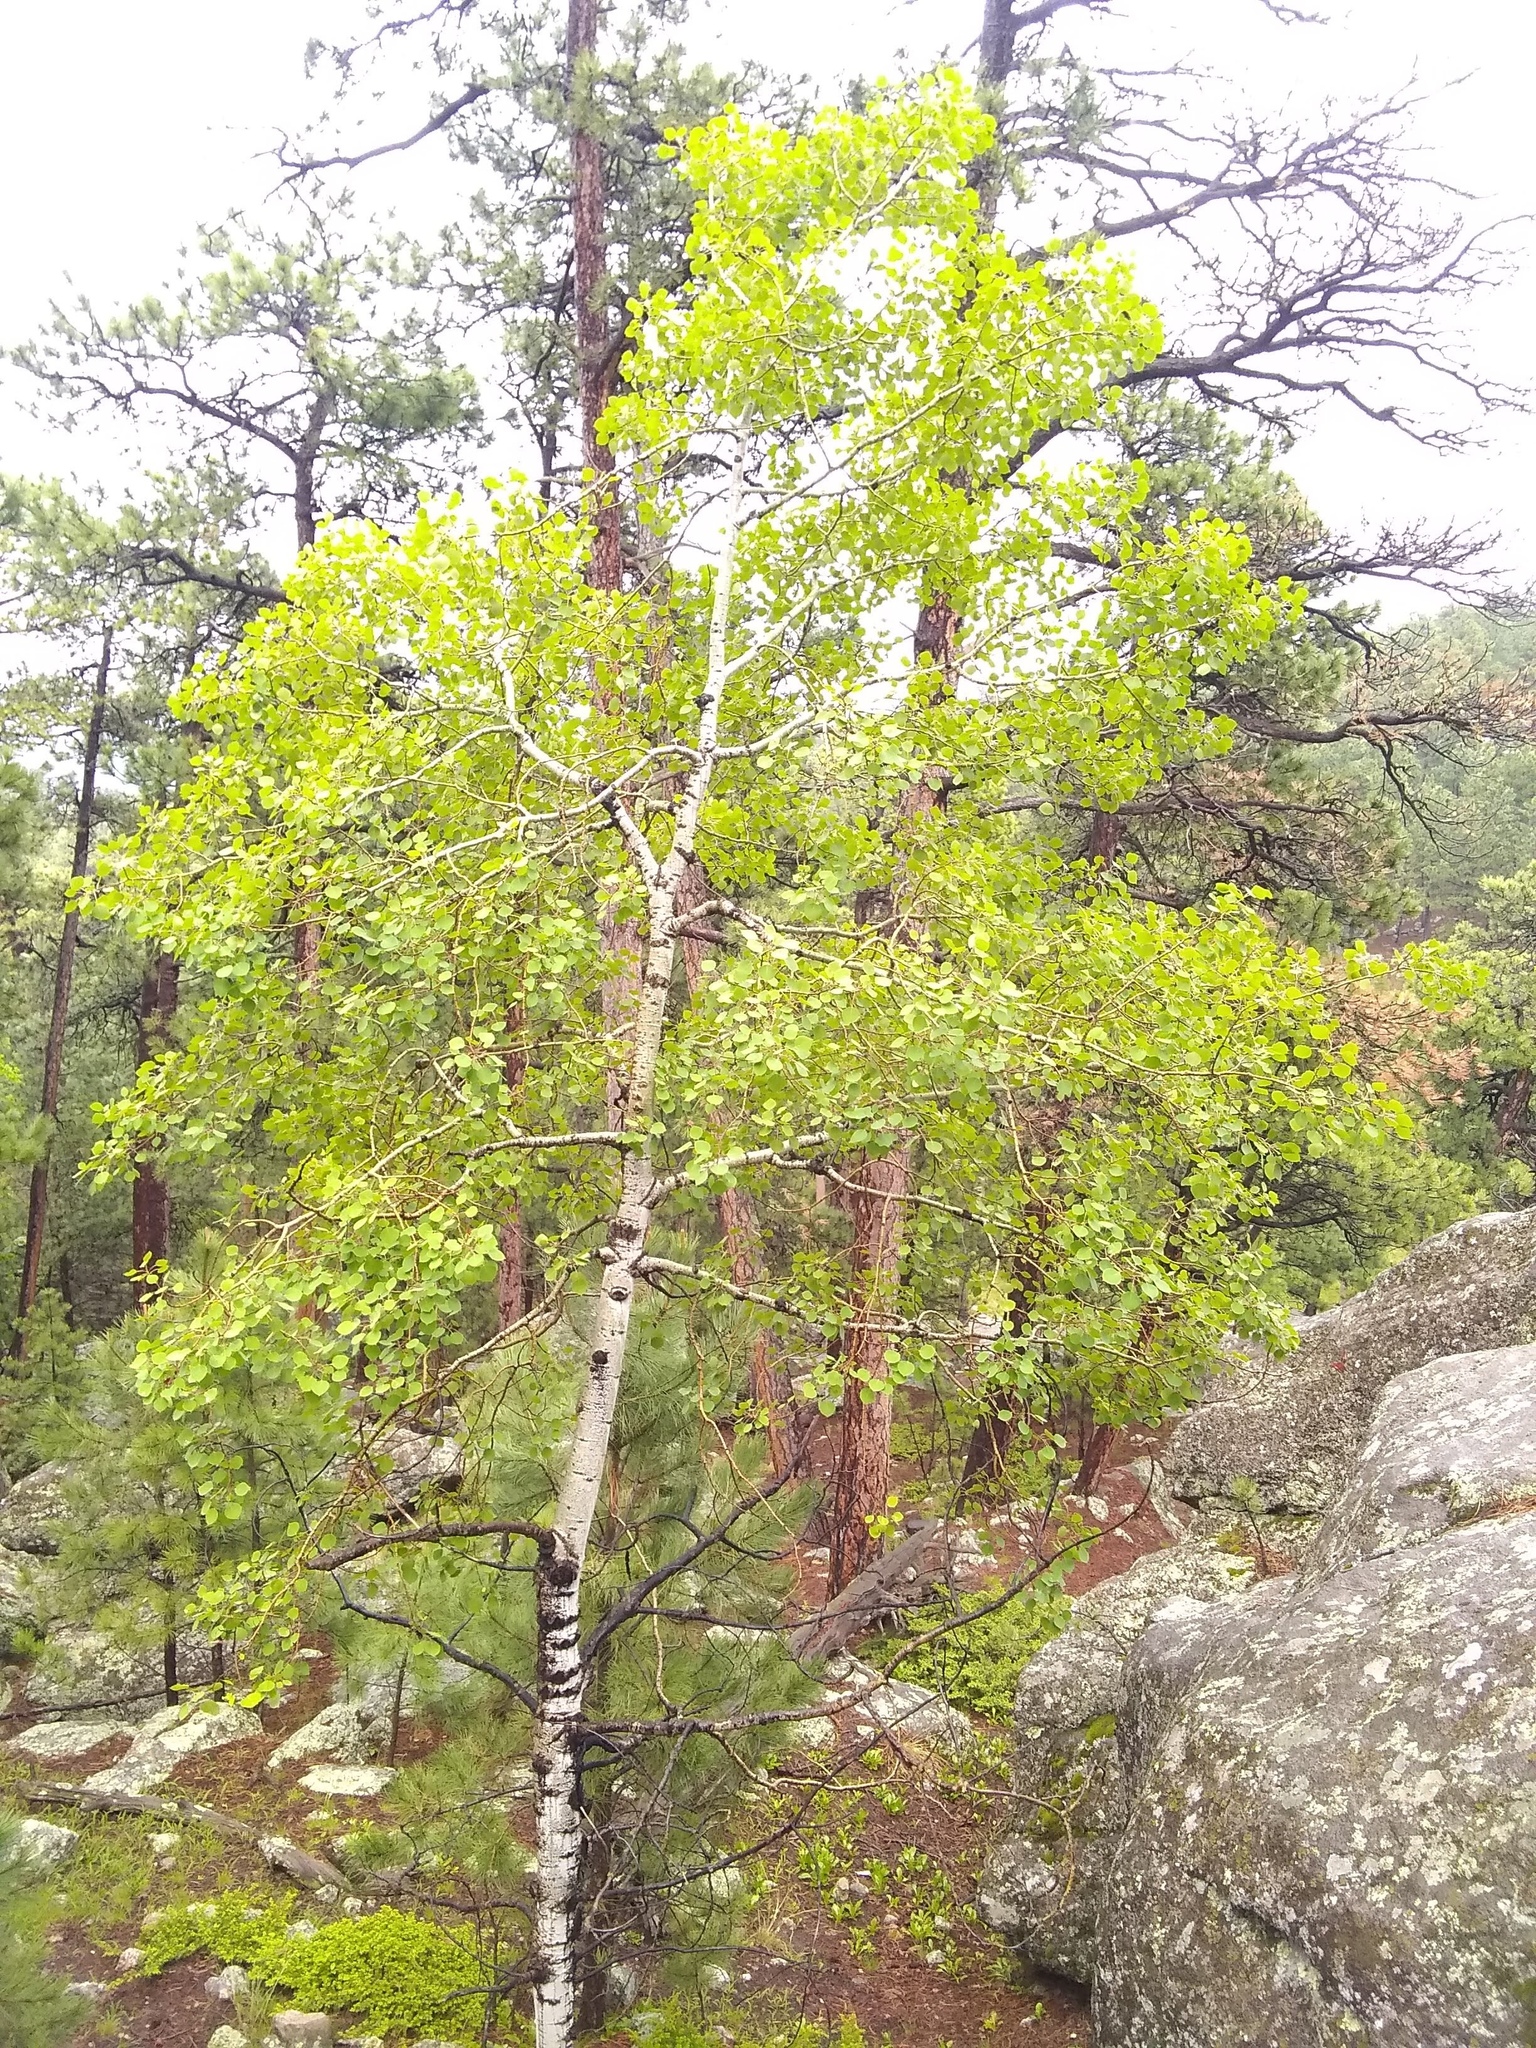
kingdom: Plantae
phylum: Tracheophyta
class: Magnoliopsida
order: Malpighiales
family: Salicaceae
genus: Populus
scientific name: Populus tremuloides
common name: Quaking aspen
